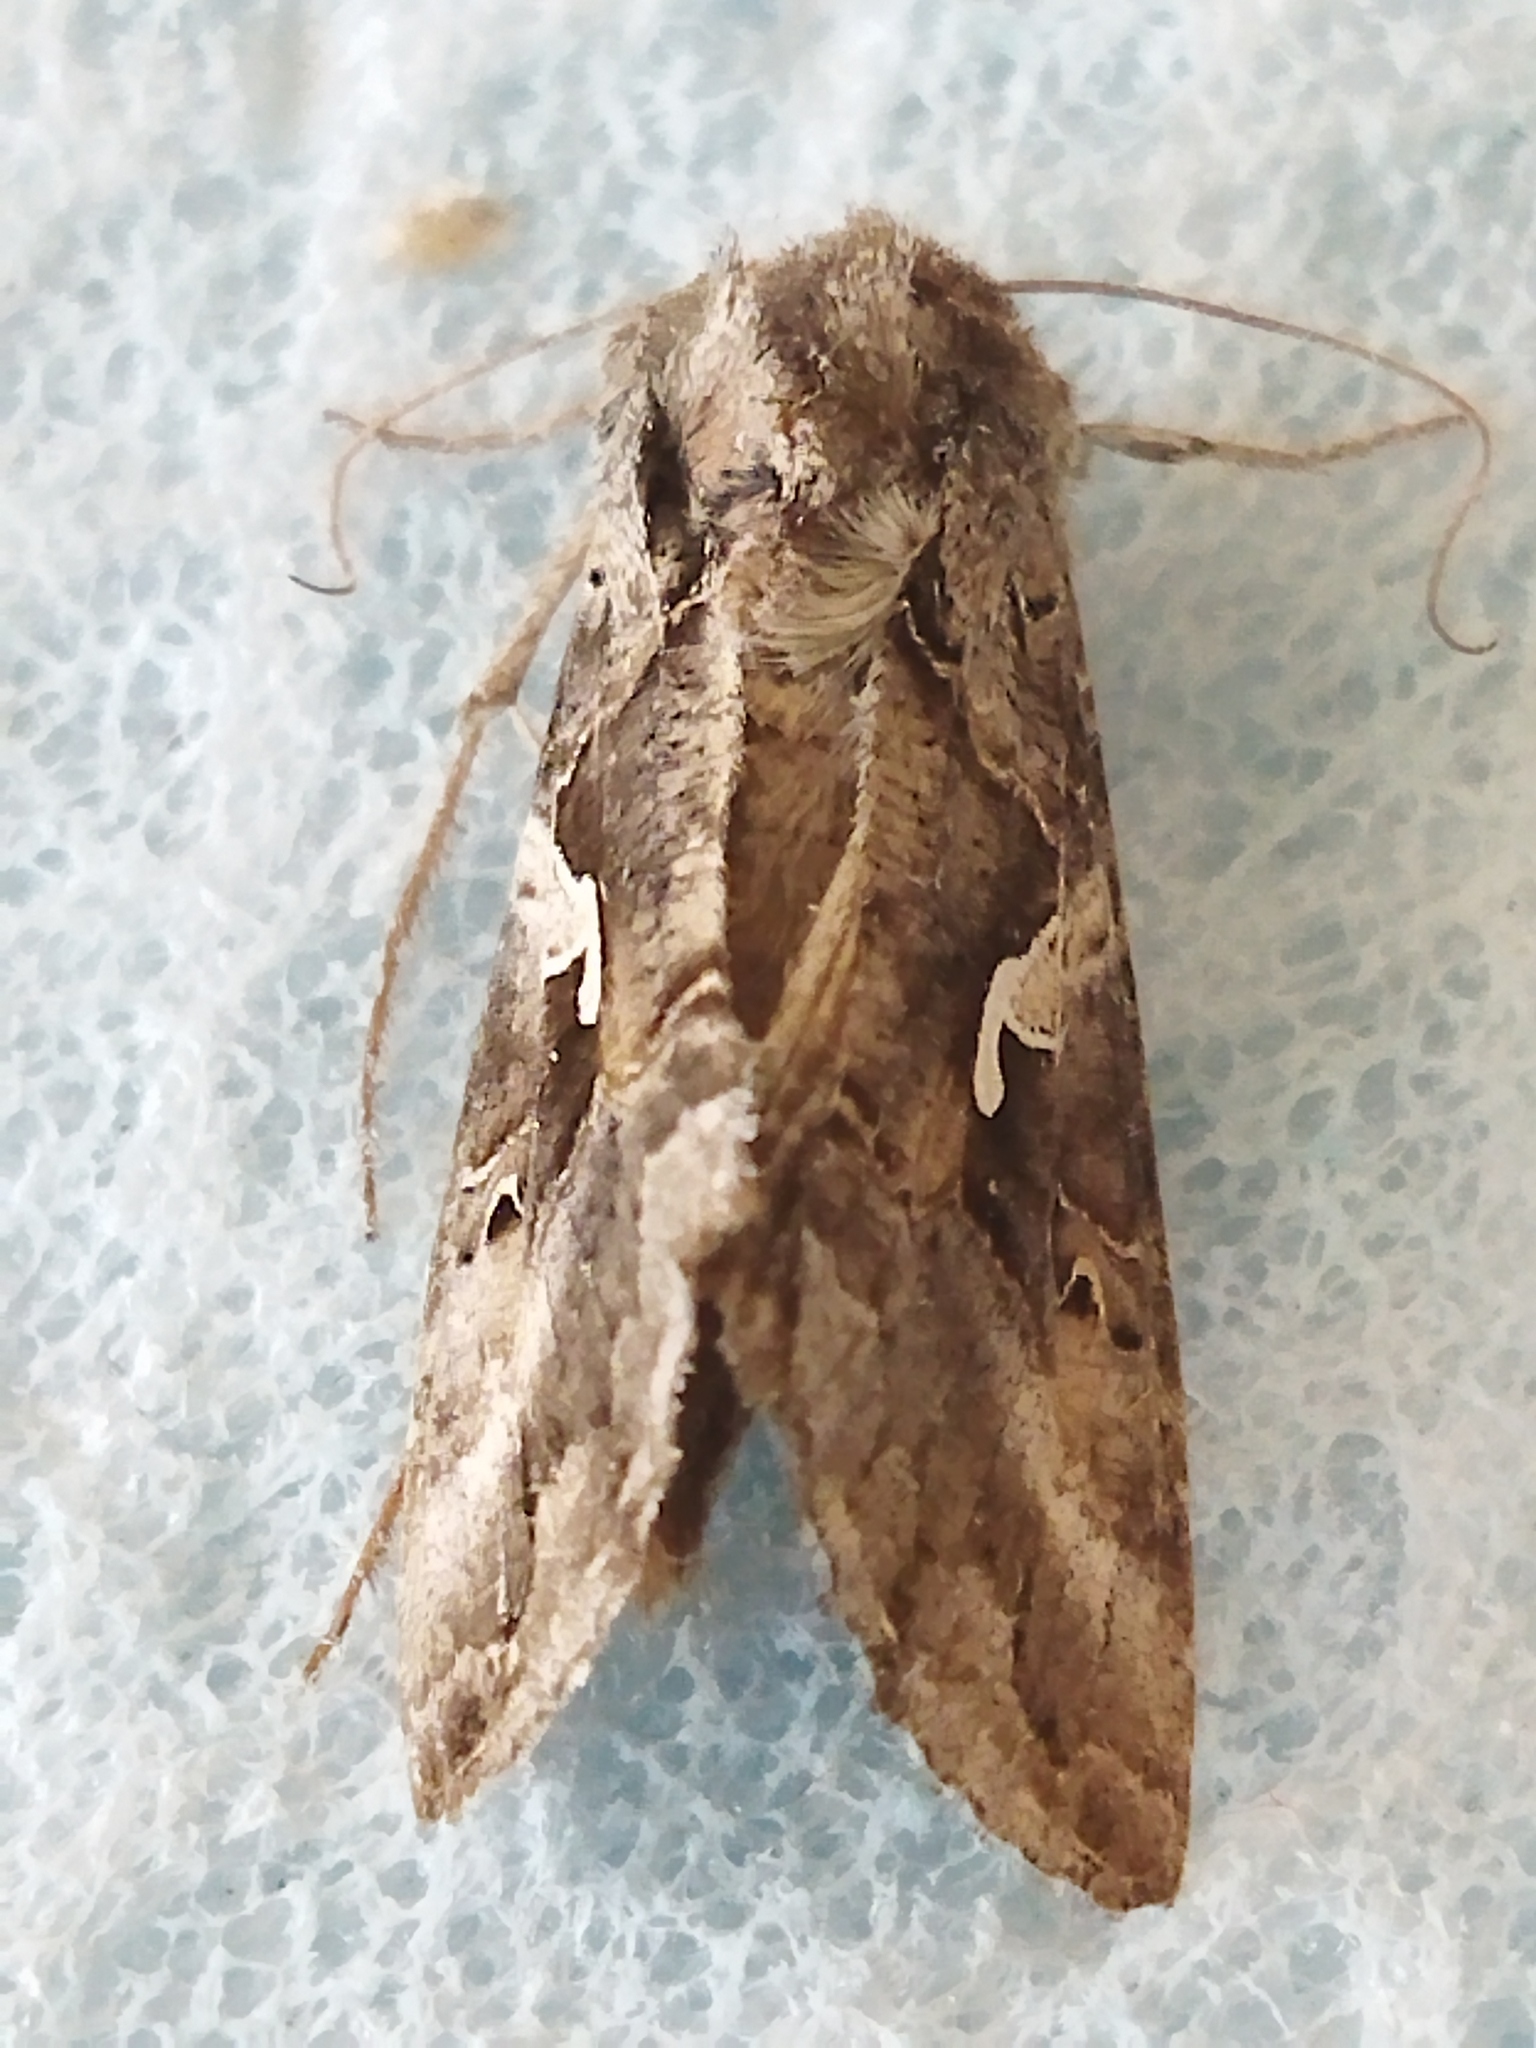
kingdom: Animalia
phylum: Arthropoda
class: Insecta
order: Lepidoptera
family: Noctuidae
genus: Autographa
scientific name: Autographa gamma
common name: Silver y
